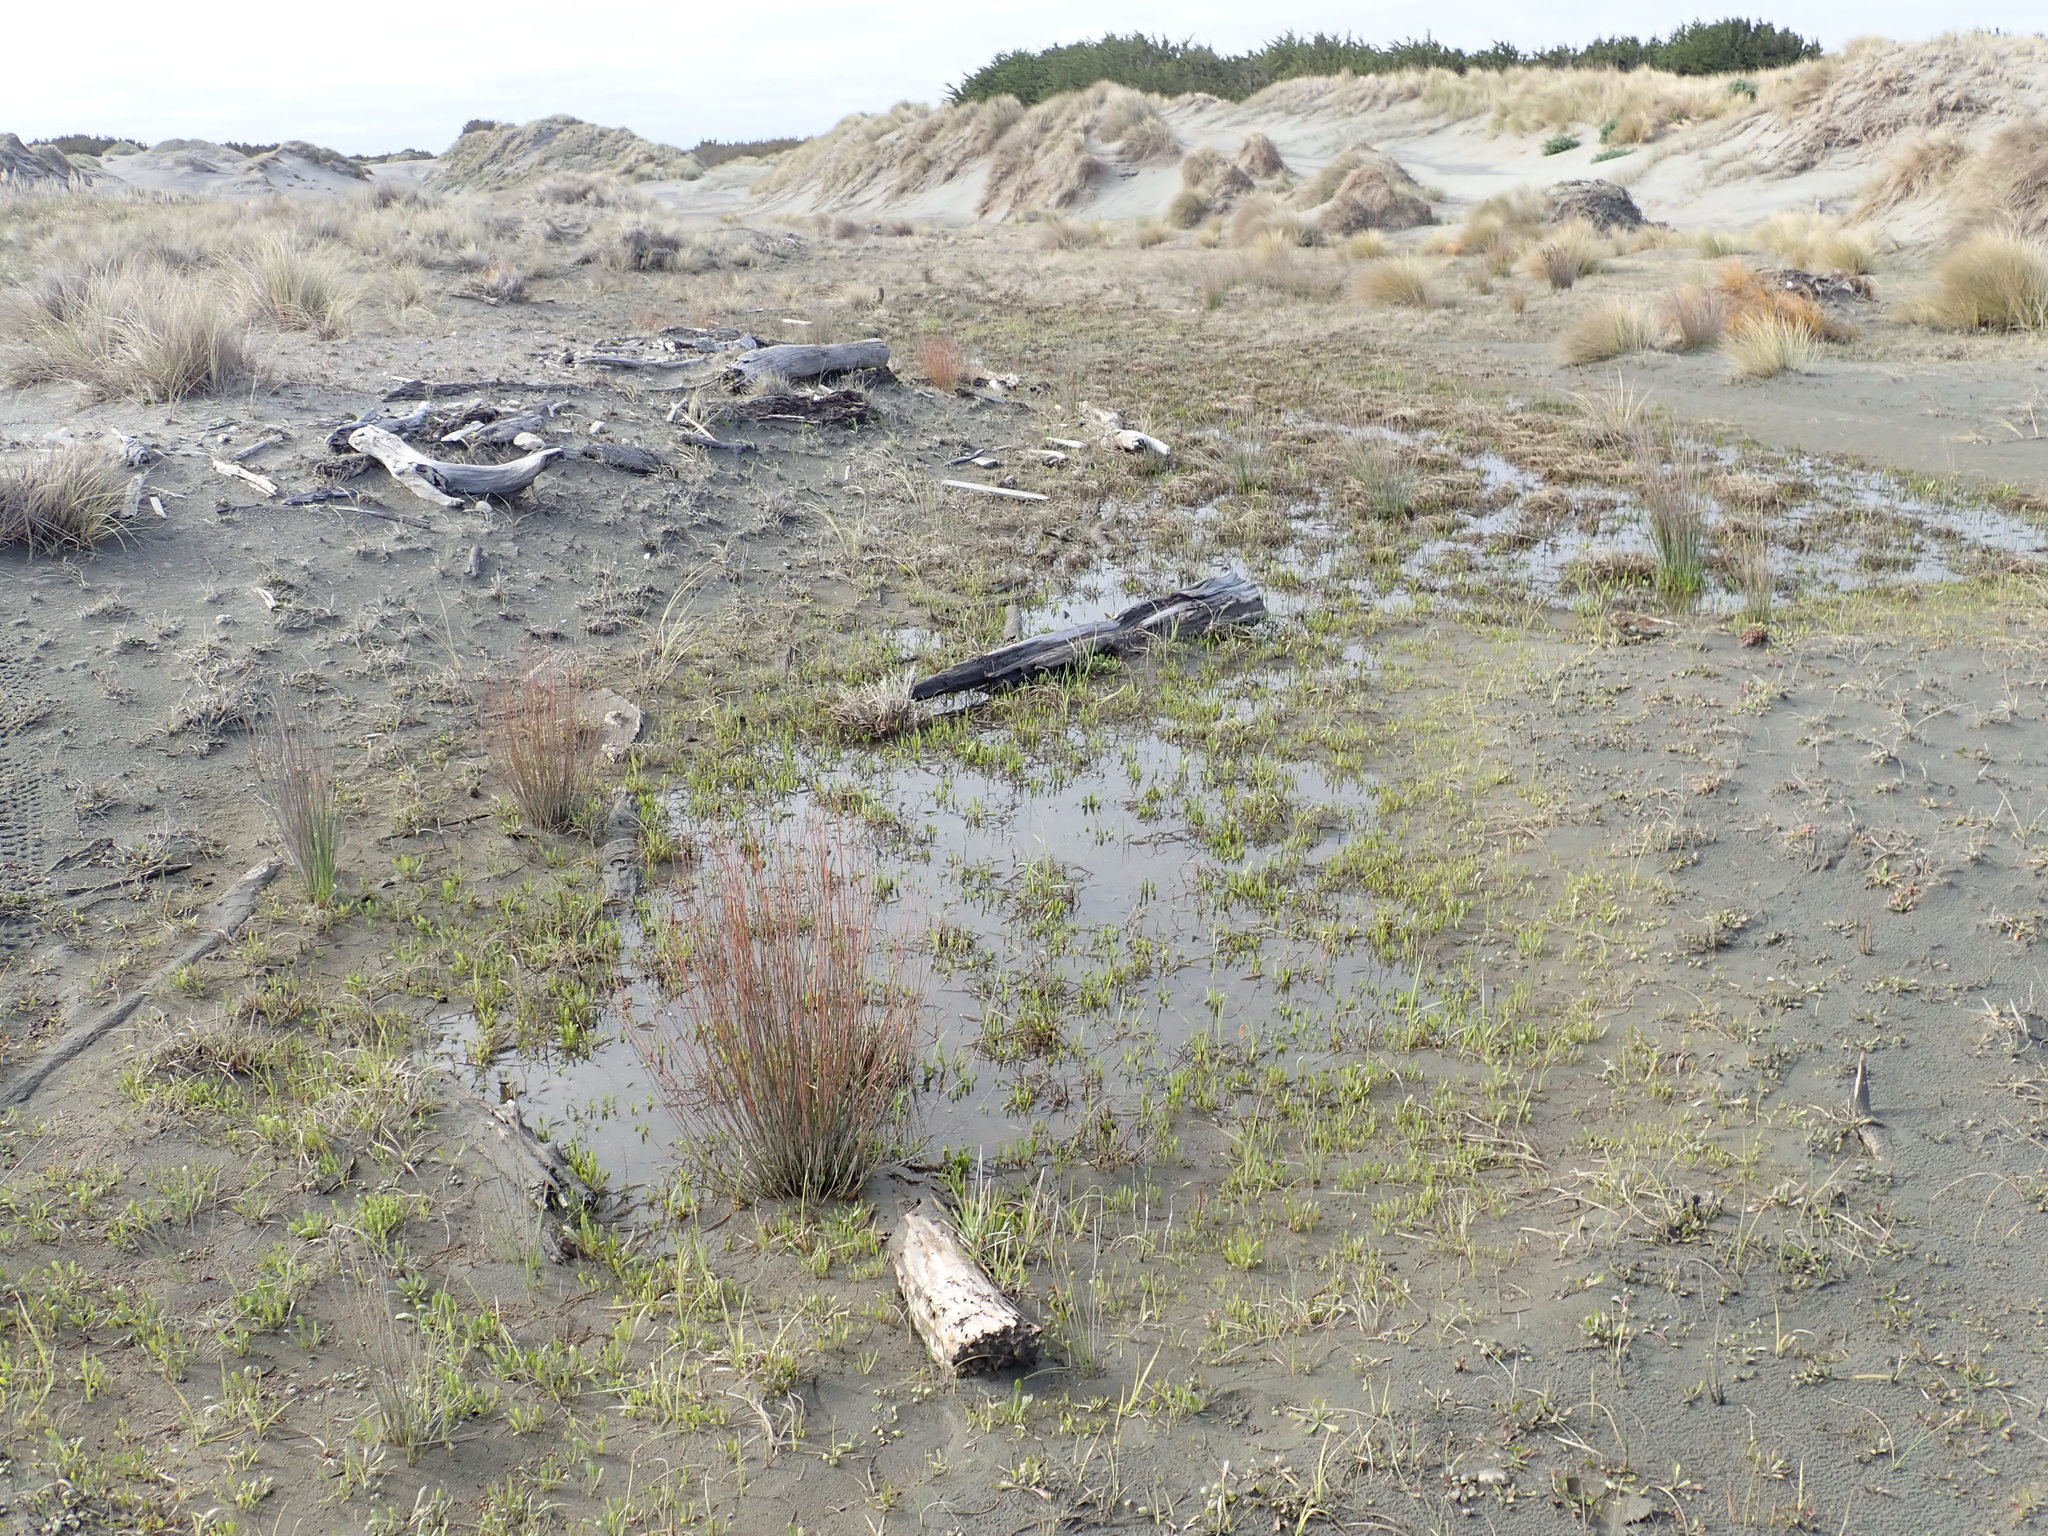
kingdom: Plantae
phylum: Tracheophyta
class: Liliopsida
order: Poales
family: Restionaceae
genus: Apodasmia
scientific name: Apodasmia similis
